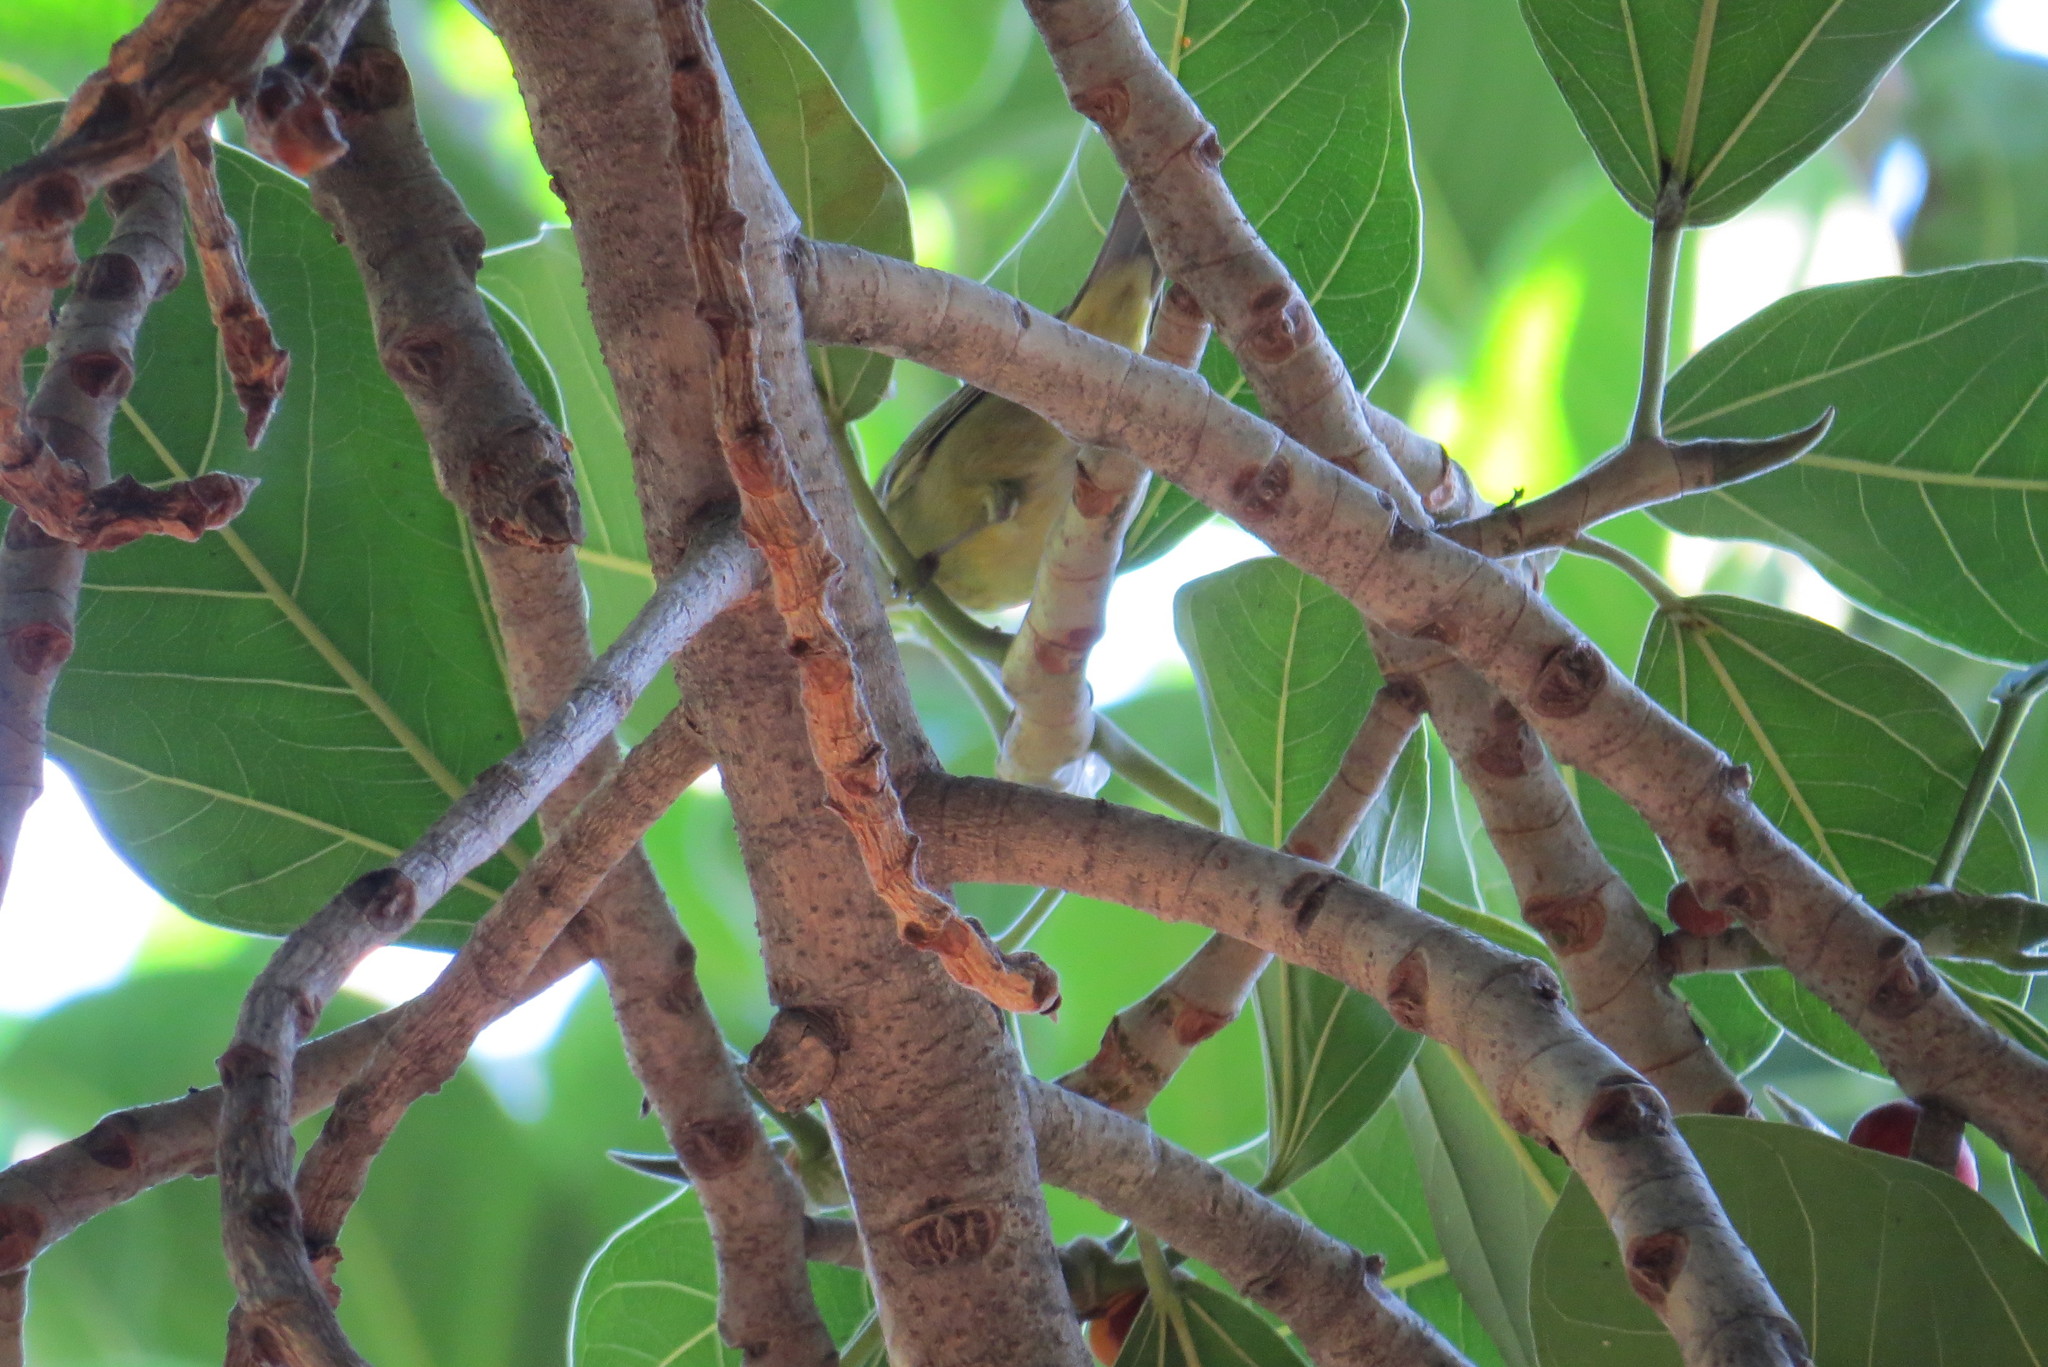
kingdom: Animalia
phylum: Chordata
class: Aves
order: Passeriformes
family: Parulidae
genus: Leiothlypis
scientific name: Leiothlypis celata
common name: Orange-crowned warbler
